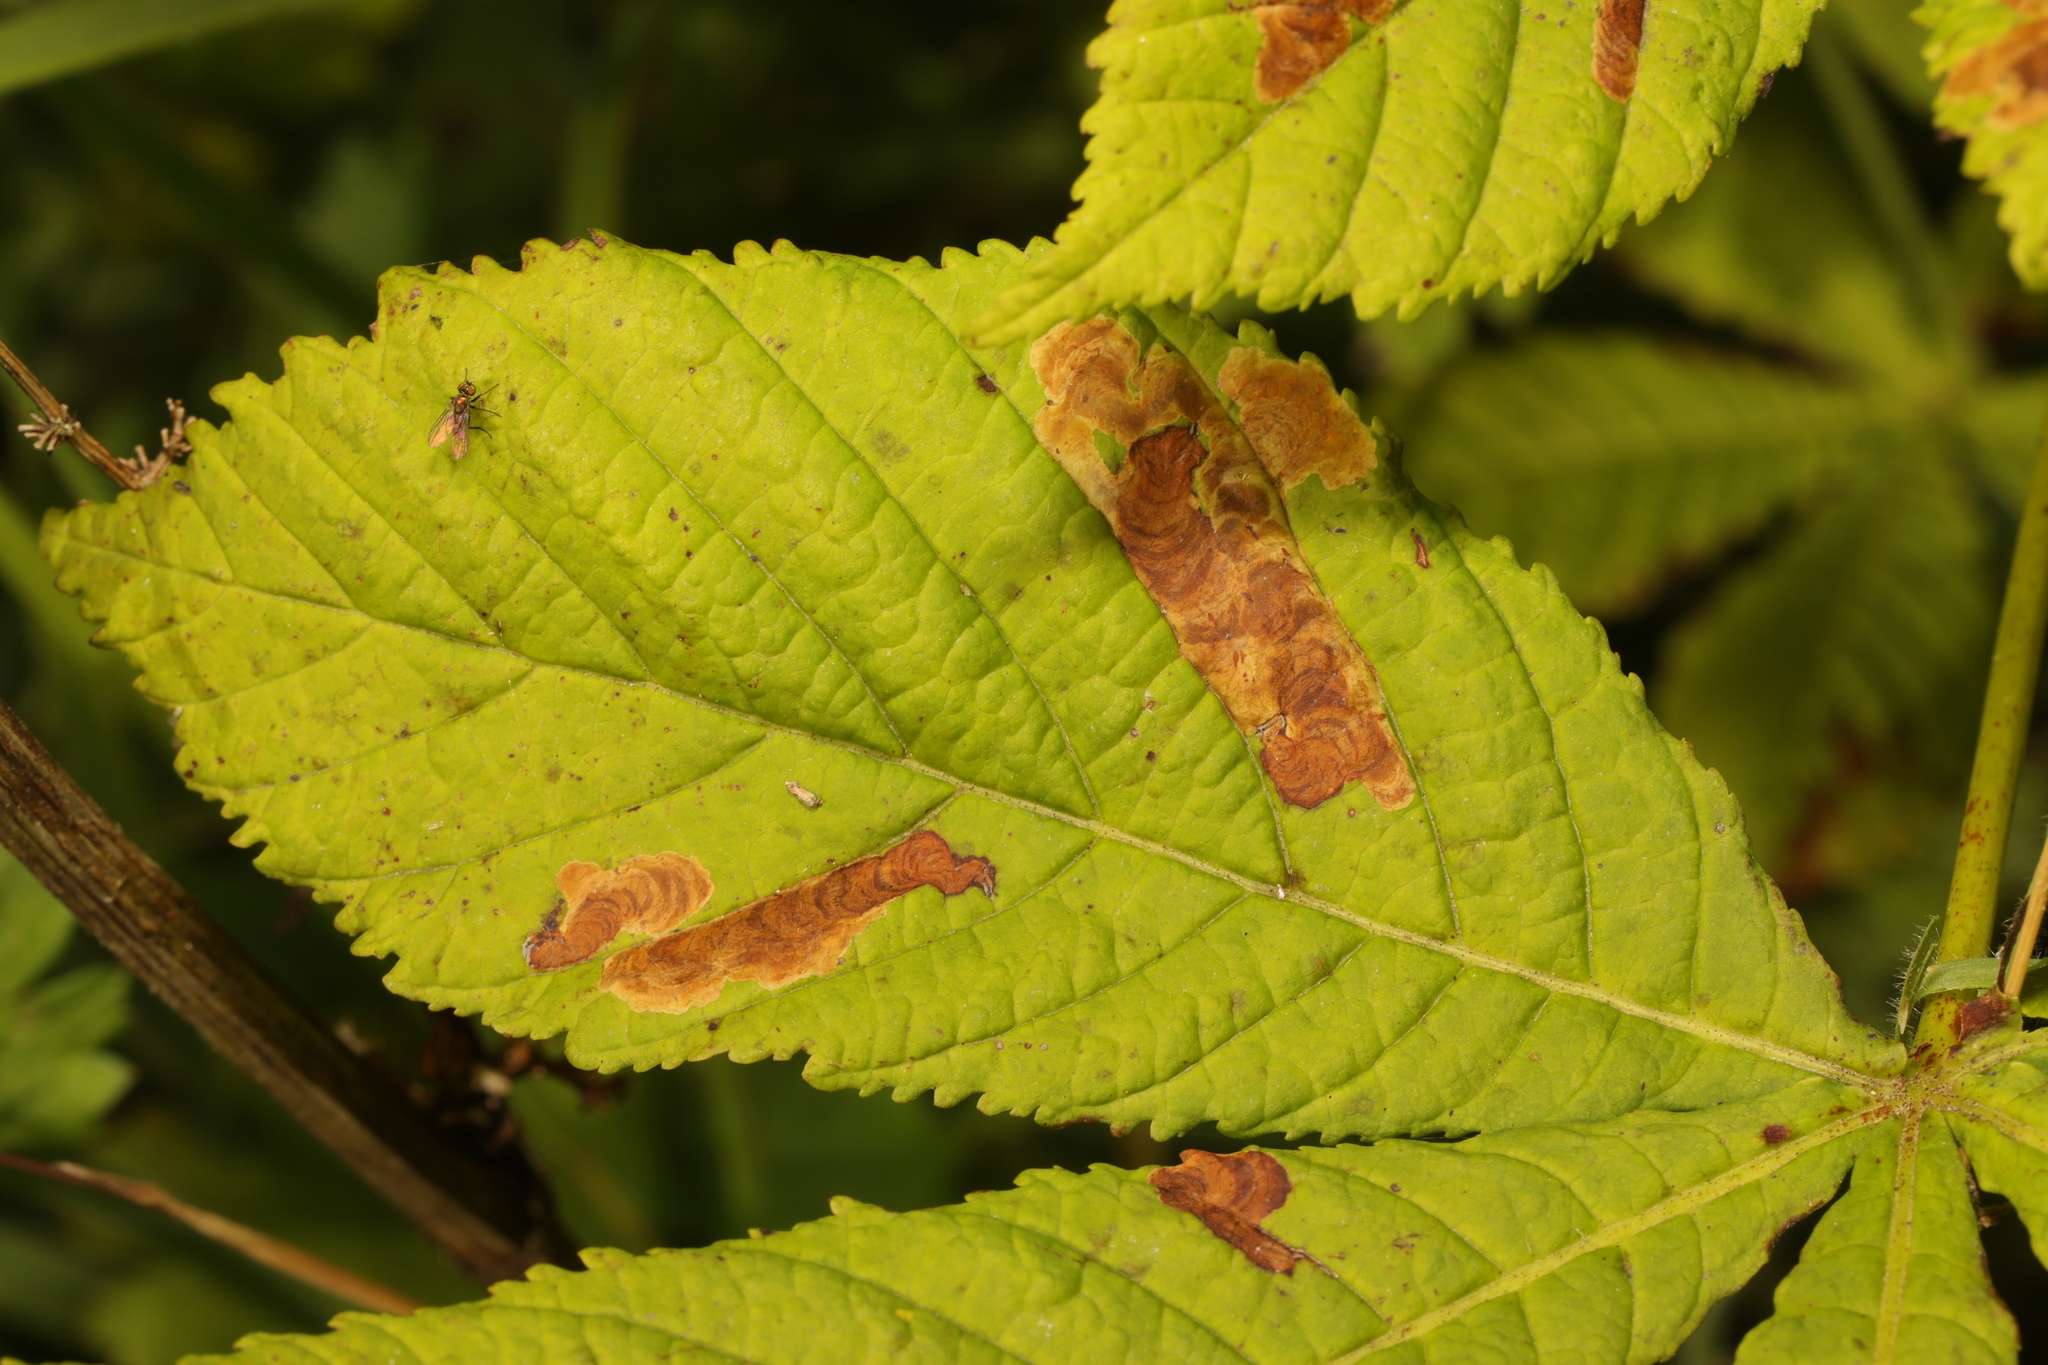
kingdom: Animalia
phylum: Arthropoda
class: Insecta
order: Lepidoptera
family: Gracillariidae
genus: Cameraria
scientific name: Cameraria ohridella
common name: Horse-chestnut leaf-miner
